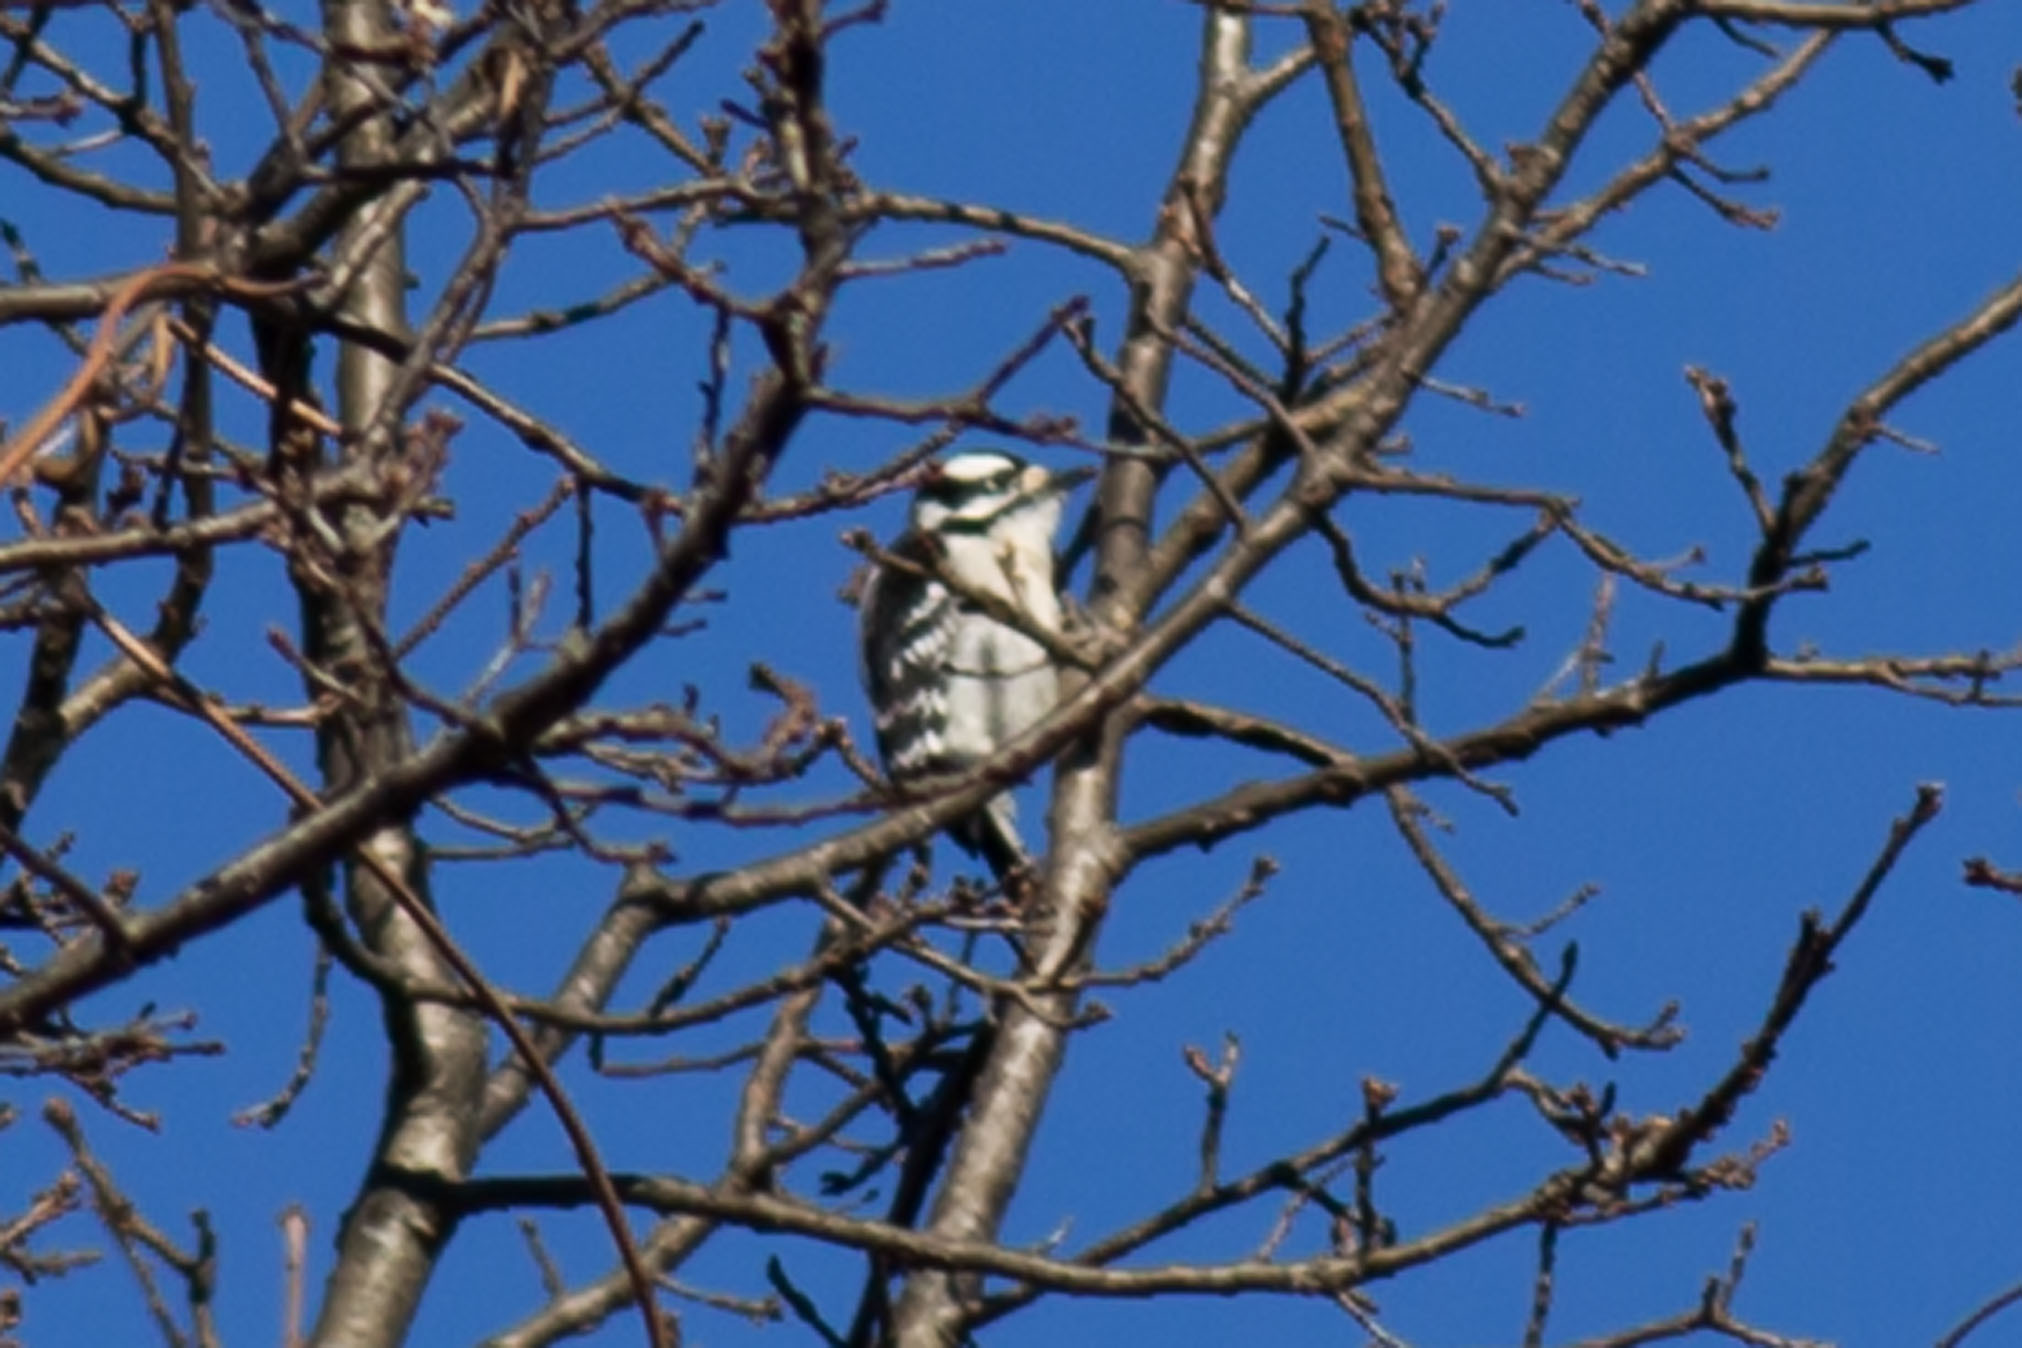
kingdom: Animalia
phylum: Chordata
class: Aves
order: Piciformes
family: Picidae
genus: Dryobates
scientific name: Dryobates pubescens
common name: Downy woodpecker
